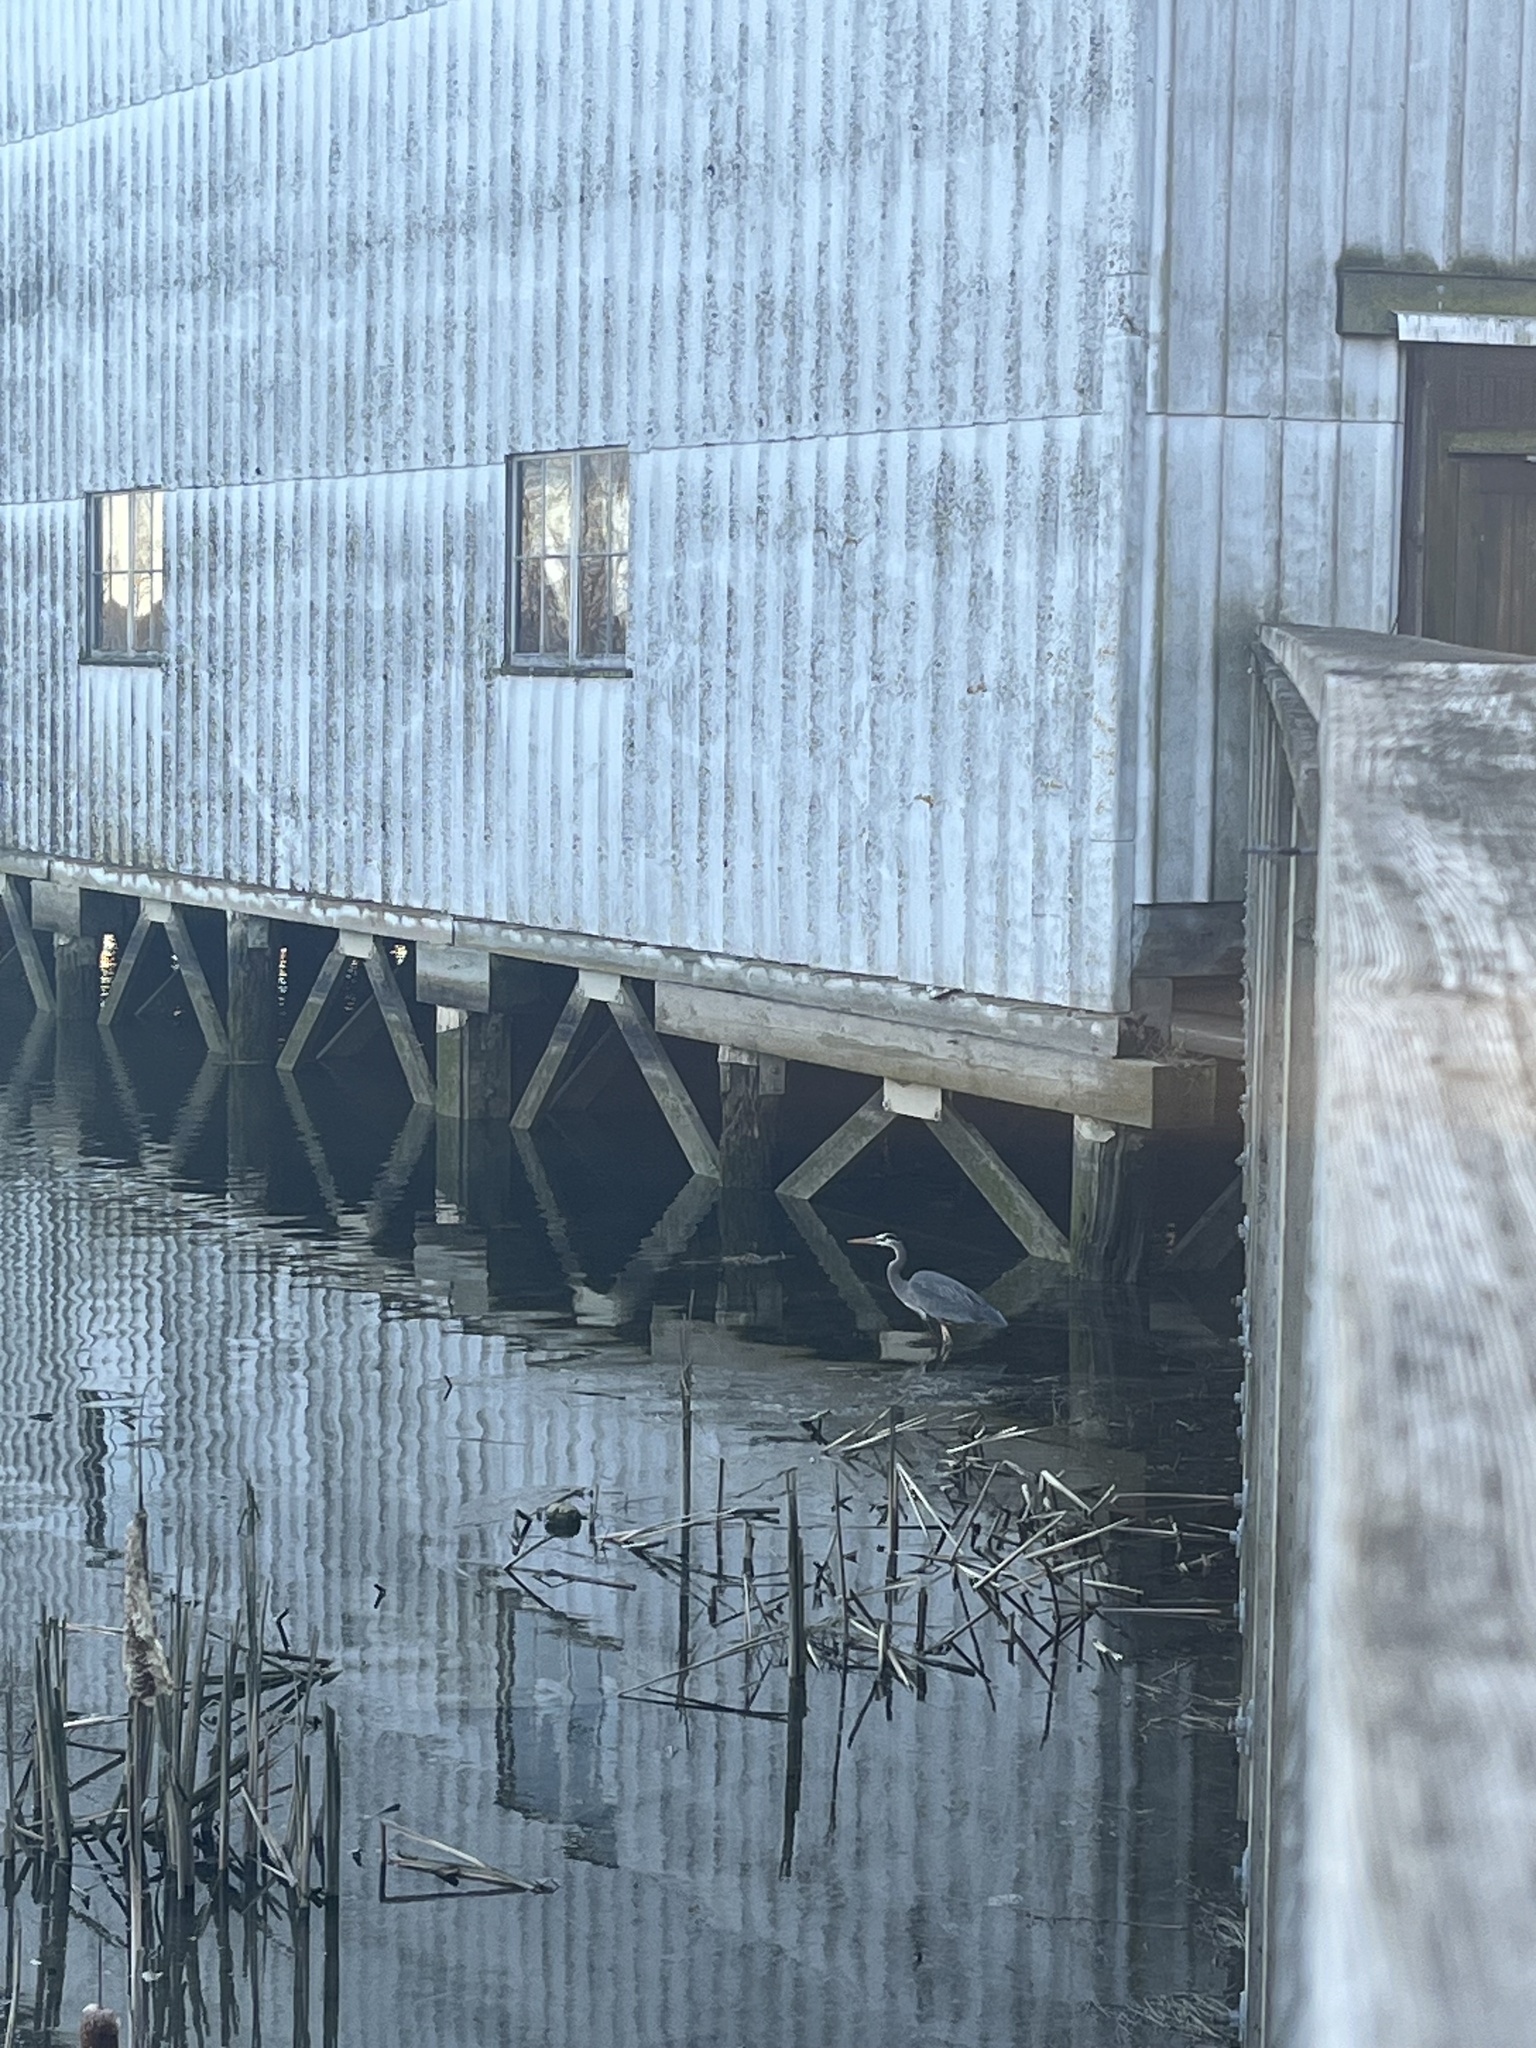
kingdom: Animalia
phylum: Chordata
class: Aves
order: Pelecaniformes
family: Ardeidae
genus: Ardea
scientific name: Ardea herodias
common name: Great blue heron
